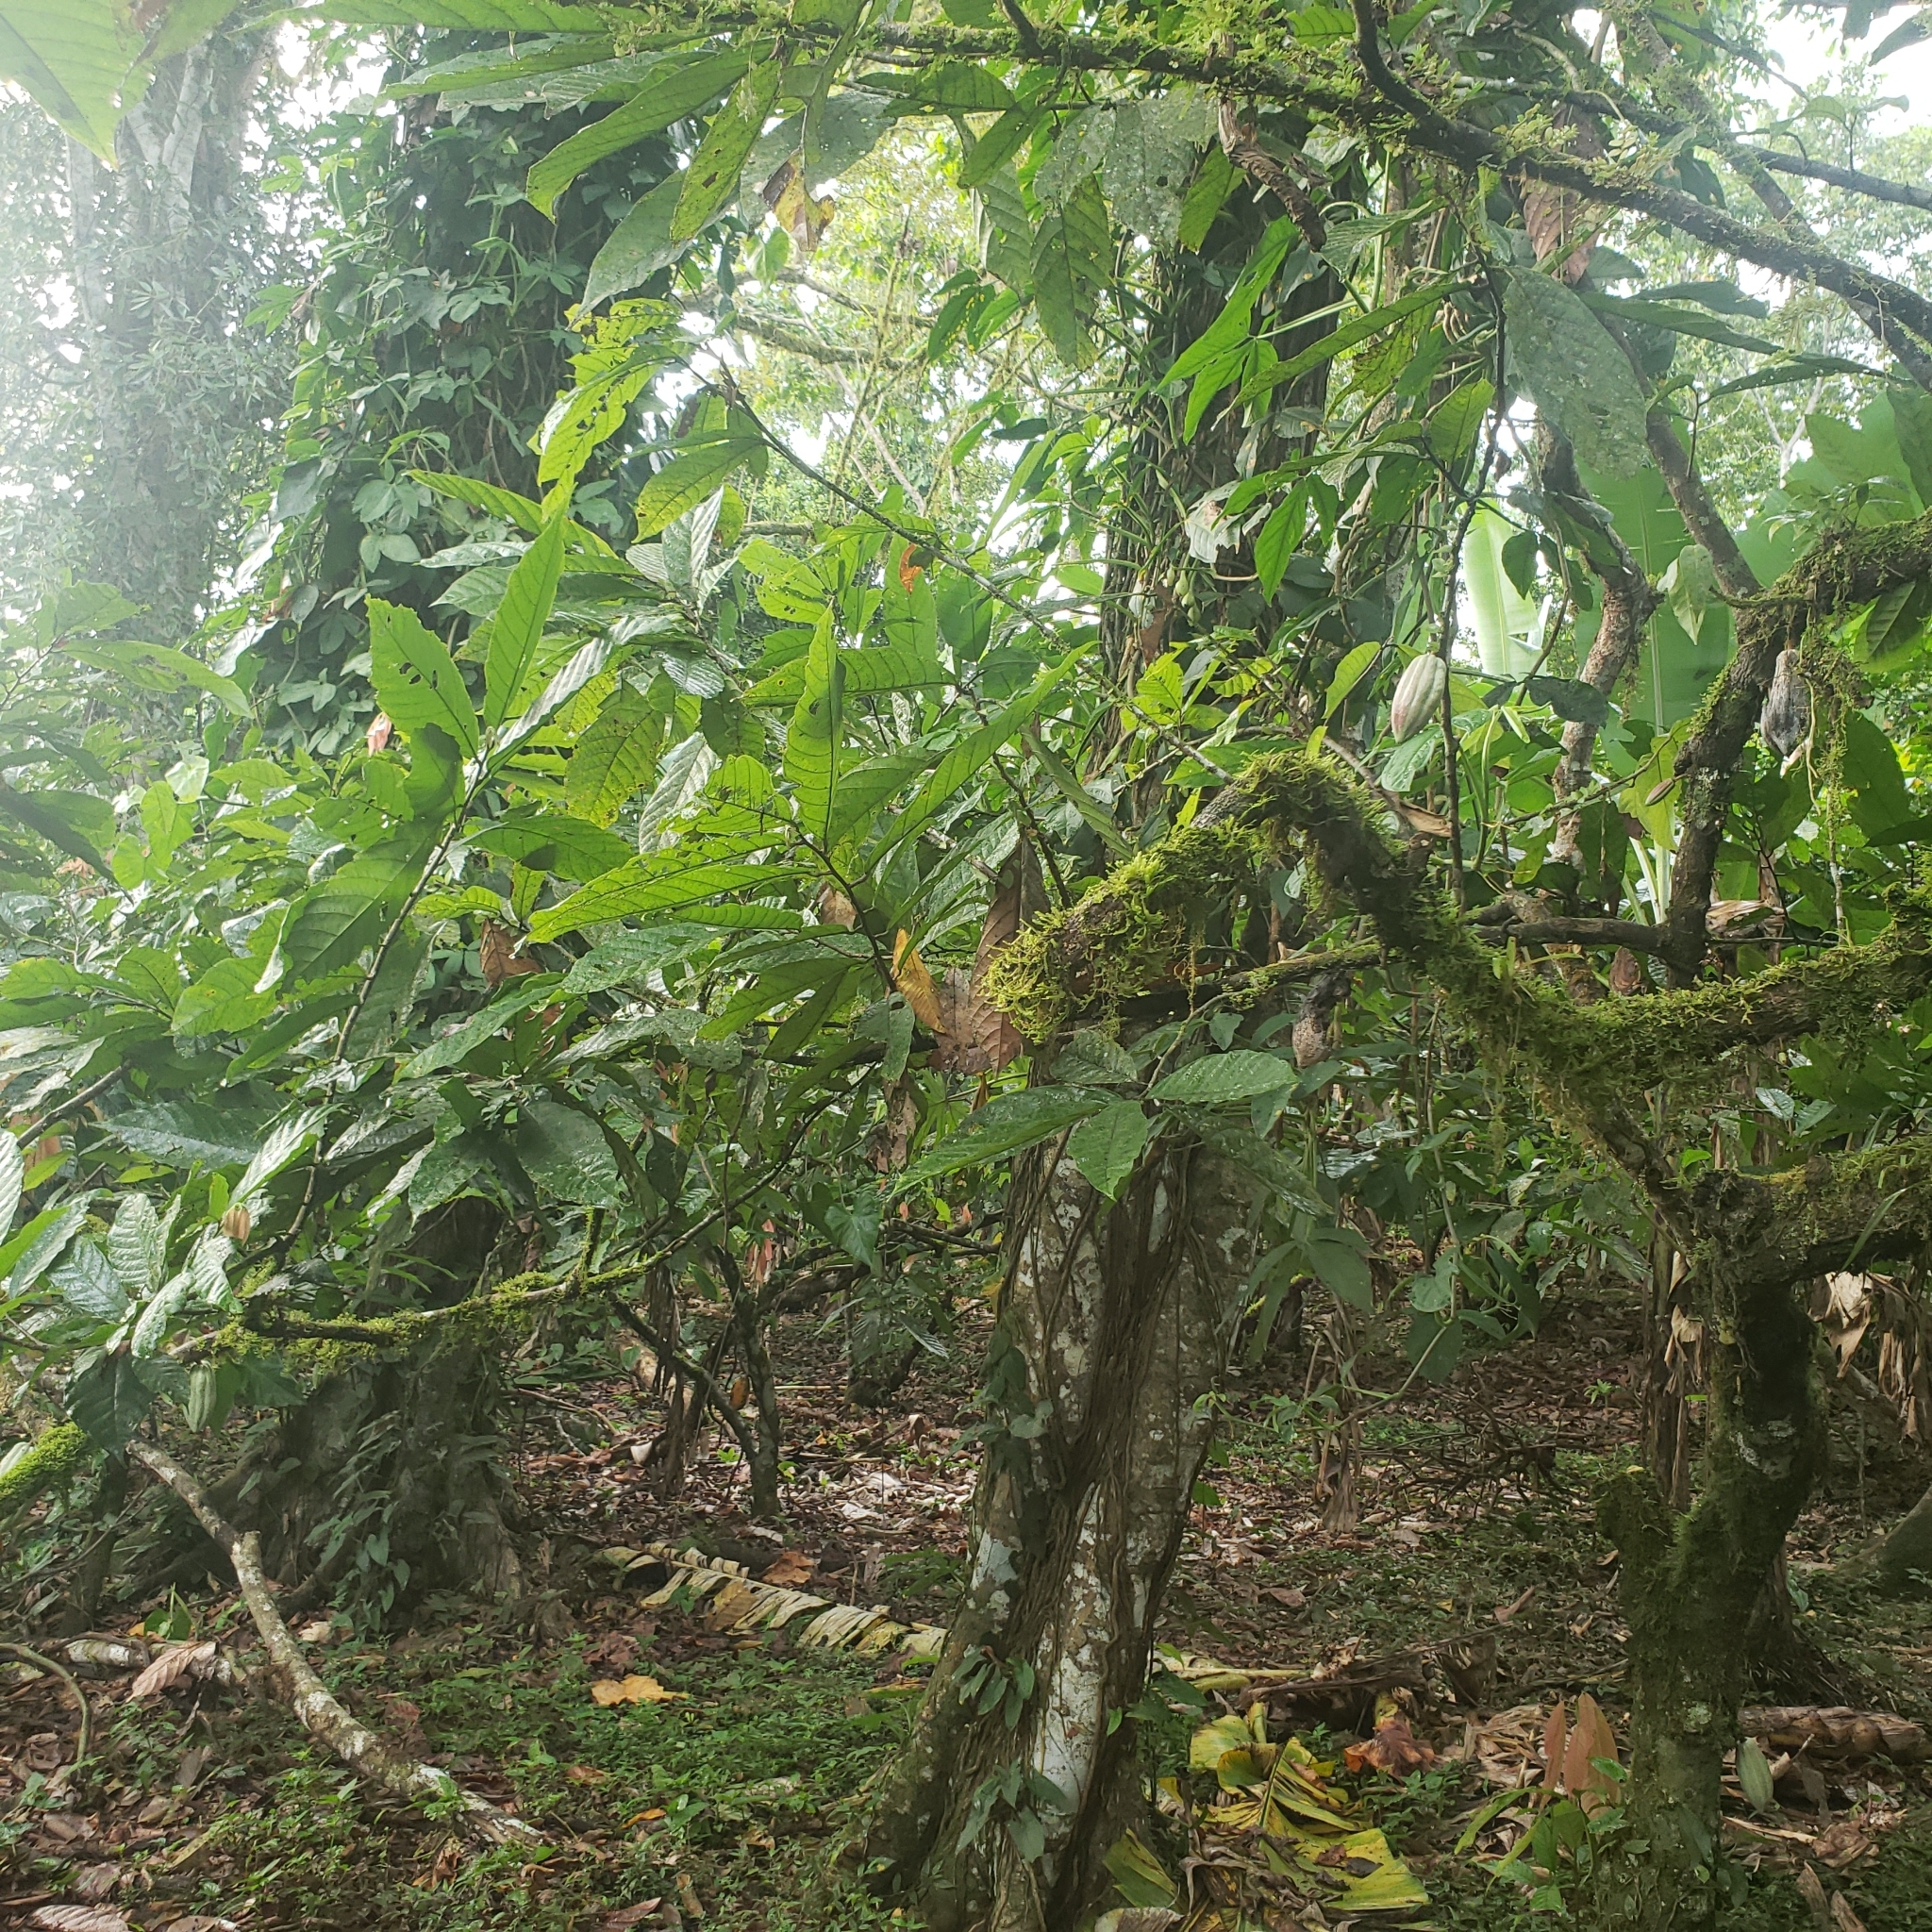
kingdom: Plantae
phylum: Tracheophyta
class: Magnoliopsida
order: Malvales
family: Malvaceae
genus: Theobroma
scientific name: Theobroma cacao
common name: Cocoa
